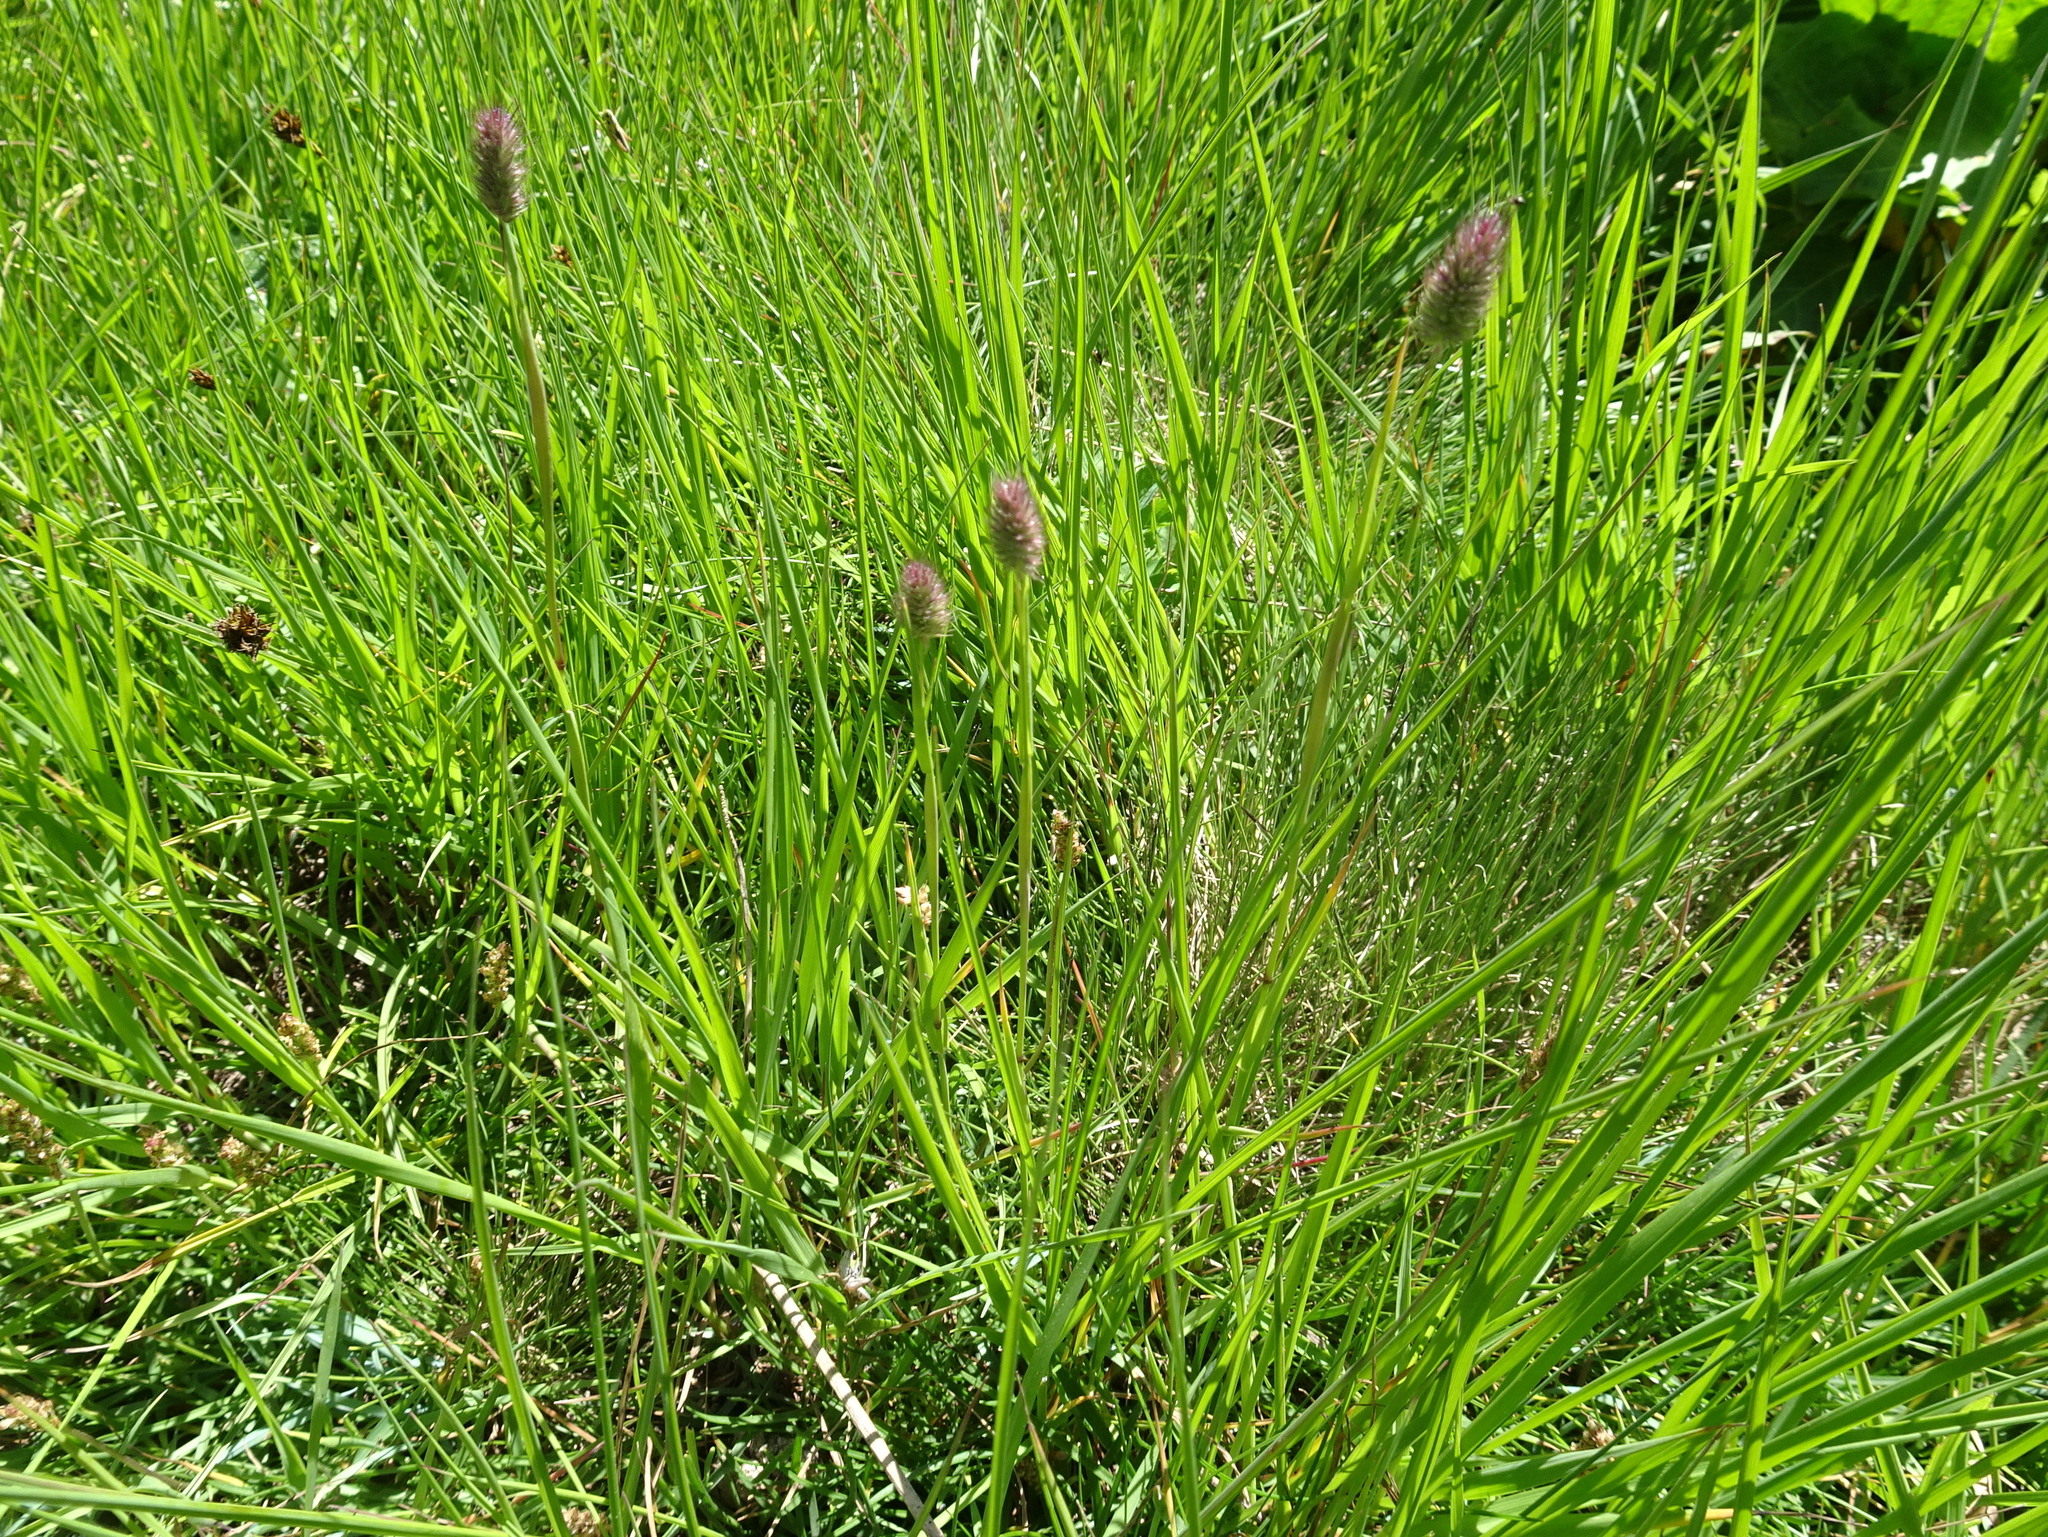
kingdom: Plantae
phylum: Tracheophyta
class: Liliopsida
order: Poales
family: Poaceae
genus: Phleum
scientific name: Phleum alpinum
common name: Alpine cat's-tail
